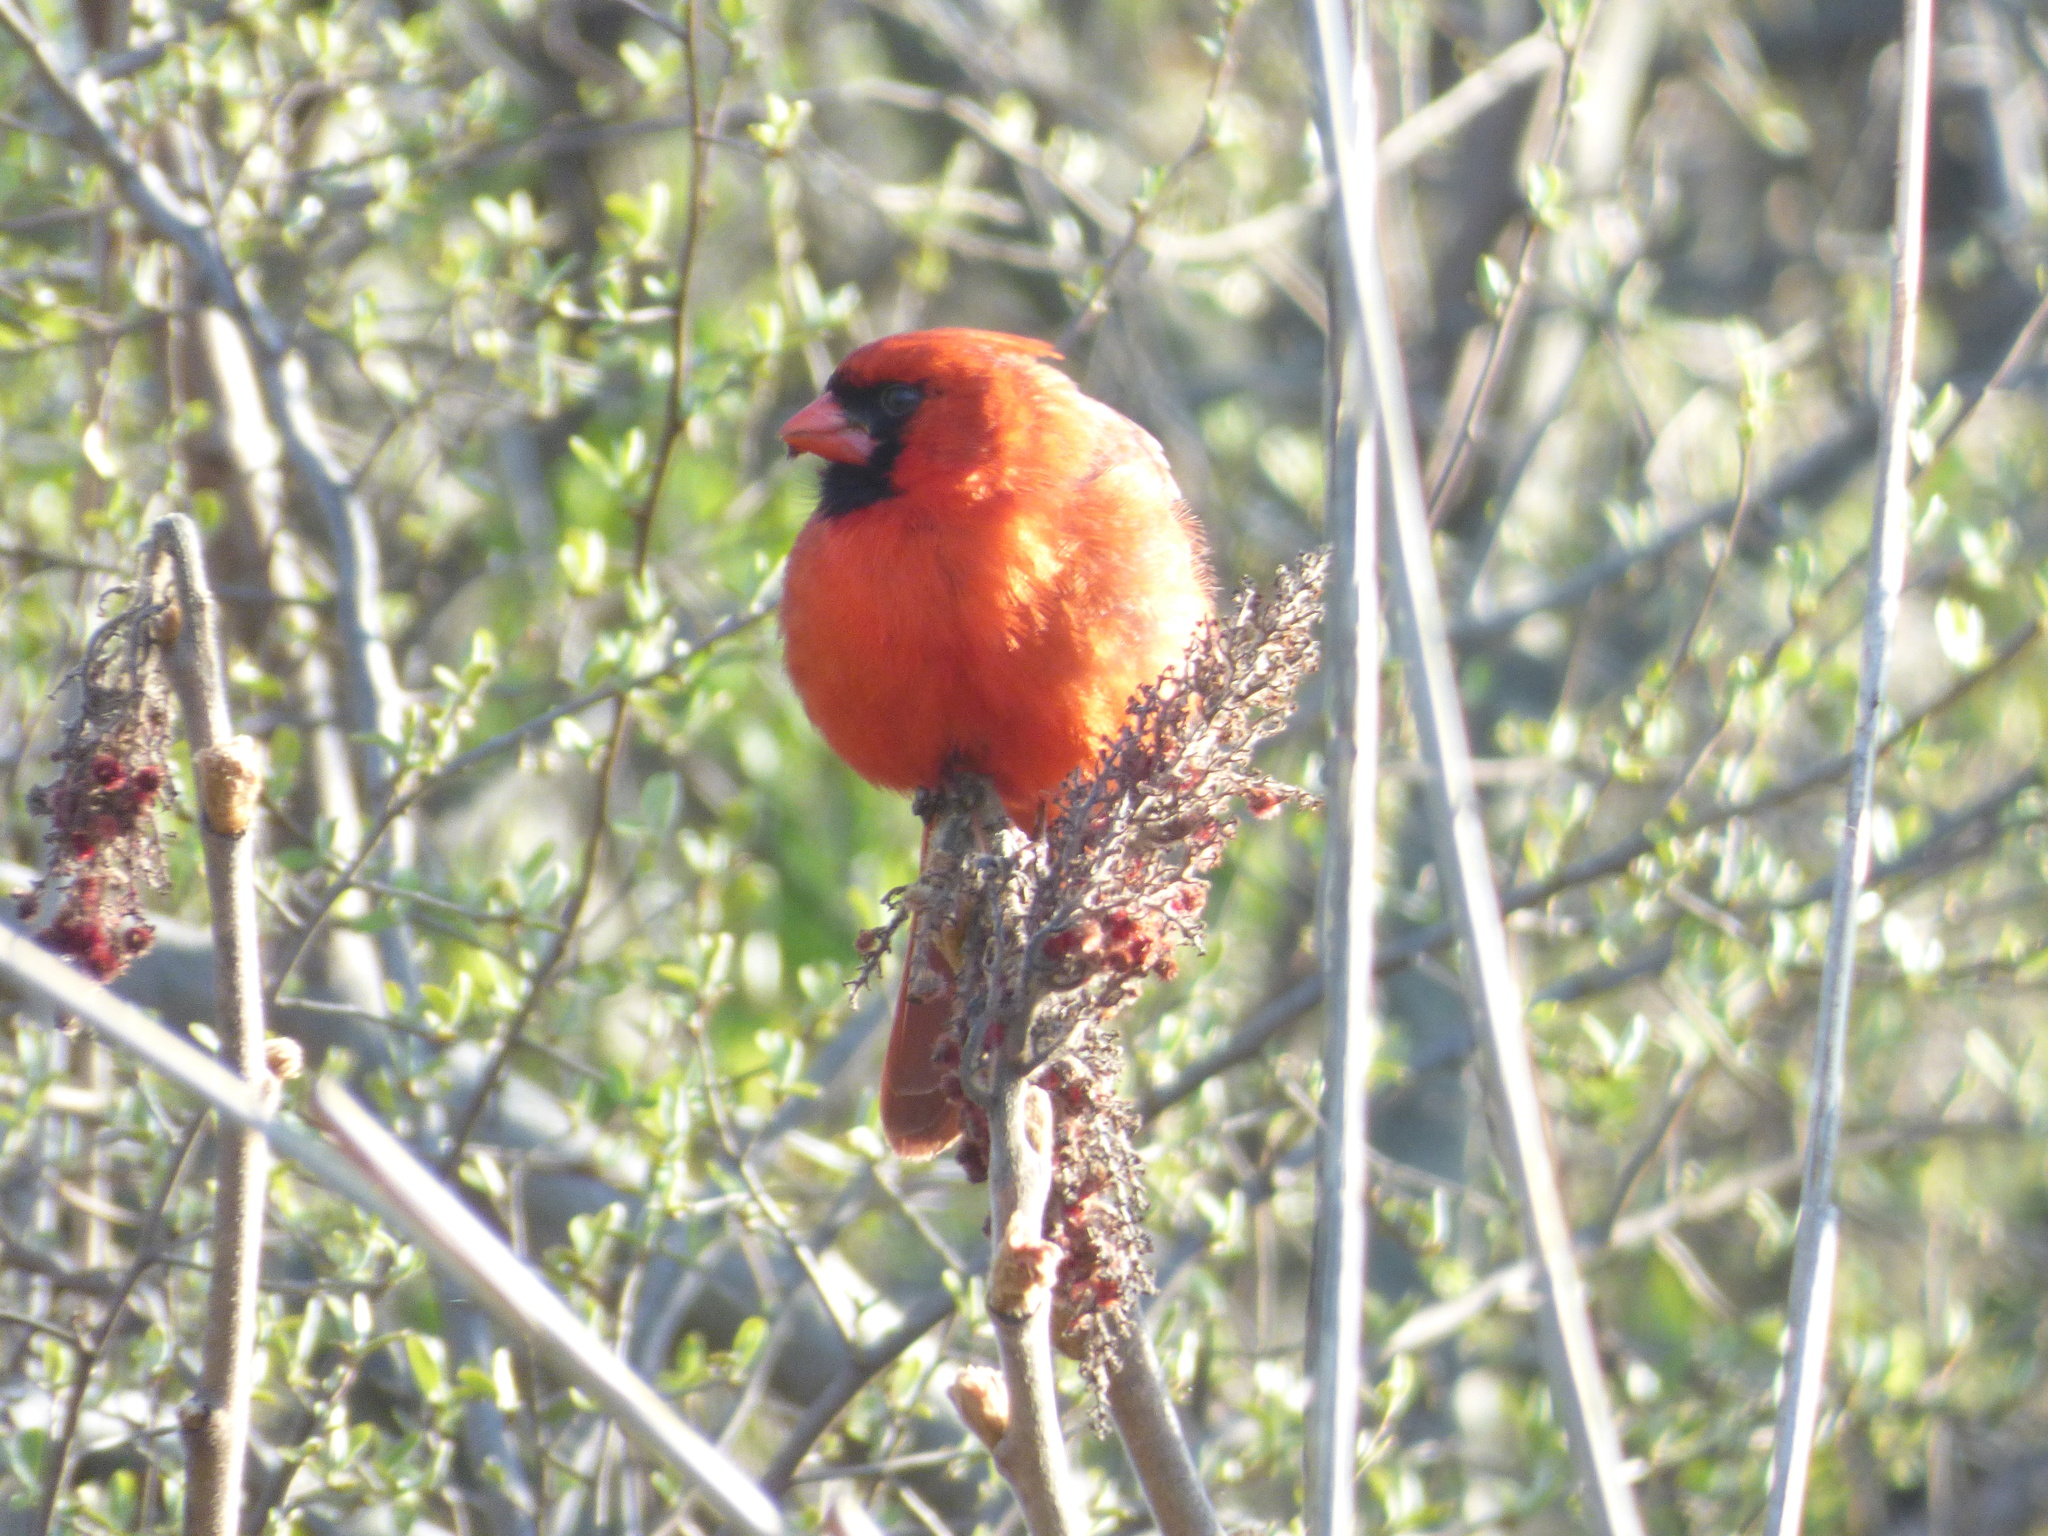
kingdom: Animalia
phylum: Chordata
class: Aves
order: Passeriformes
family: Cardinalidae
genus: Cardinalis
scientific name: Cardinalis cardinalis
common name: Northern cardinal
